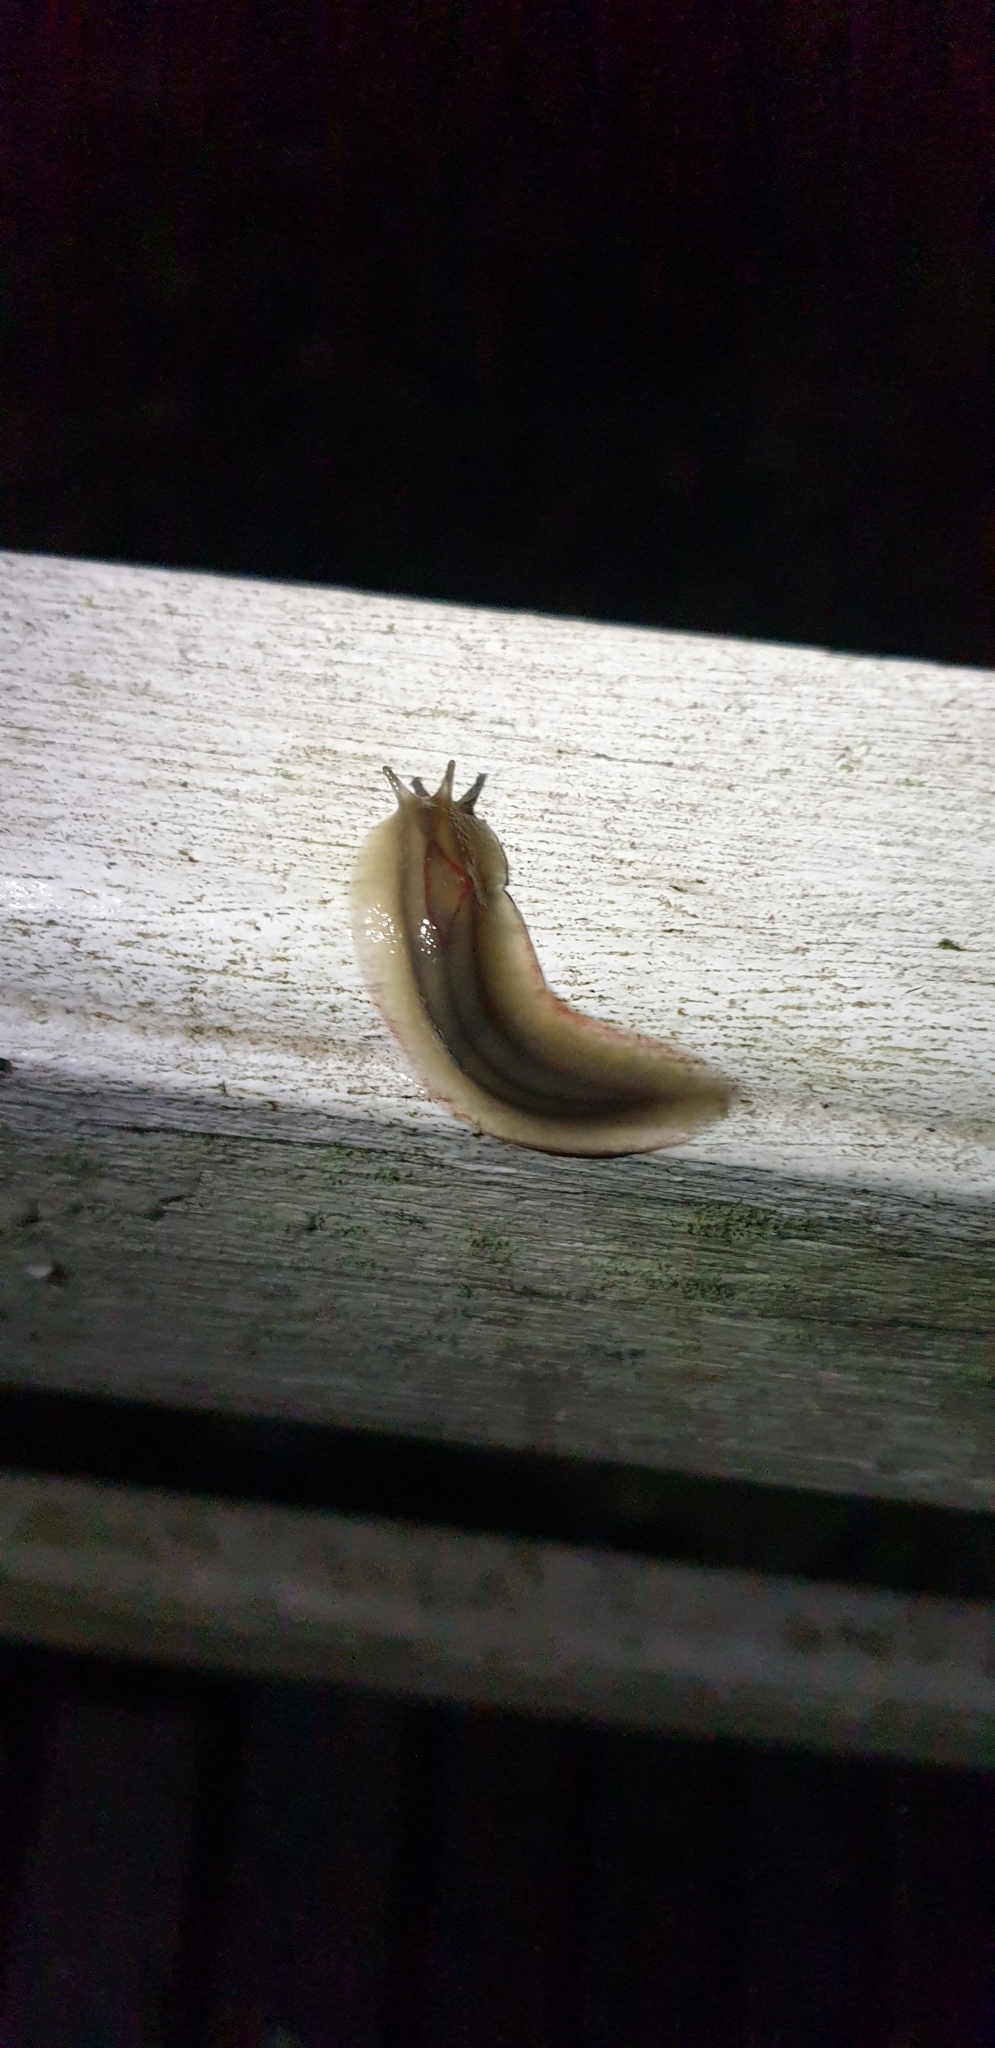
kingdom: Animalia
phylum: Mollusca
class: Gastropoda
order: Stylommatophora
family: Athoracophoridae
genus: Triboniophorus
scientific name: Triboniophorus graeffei
